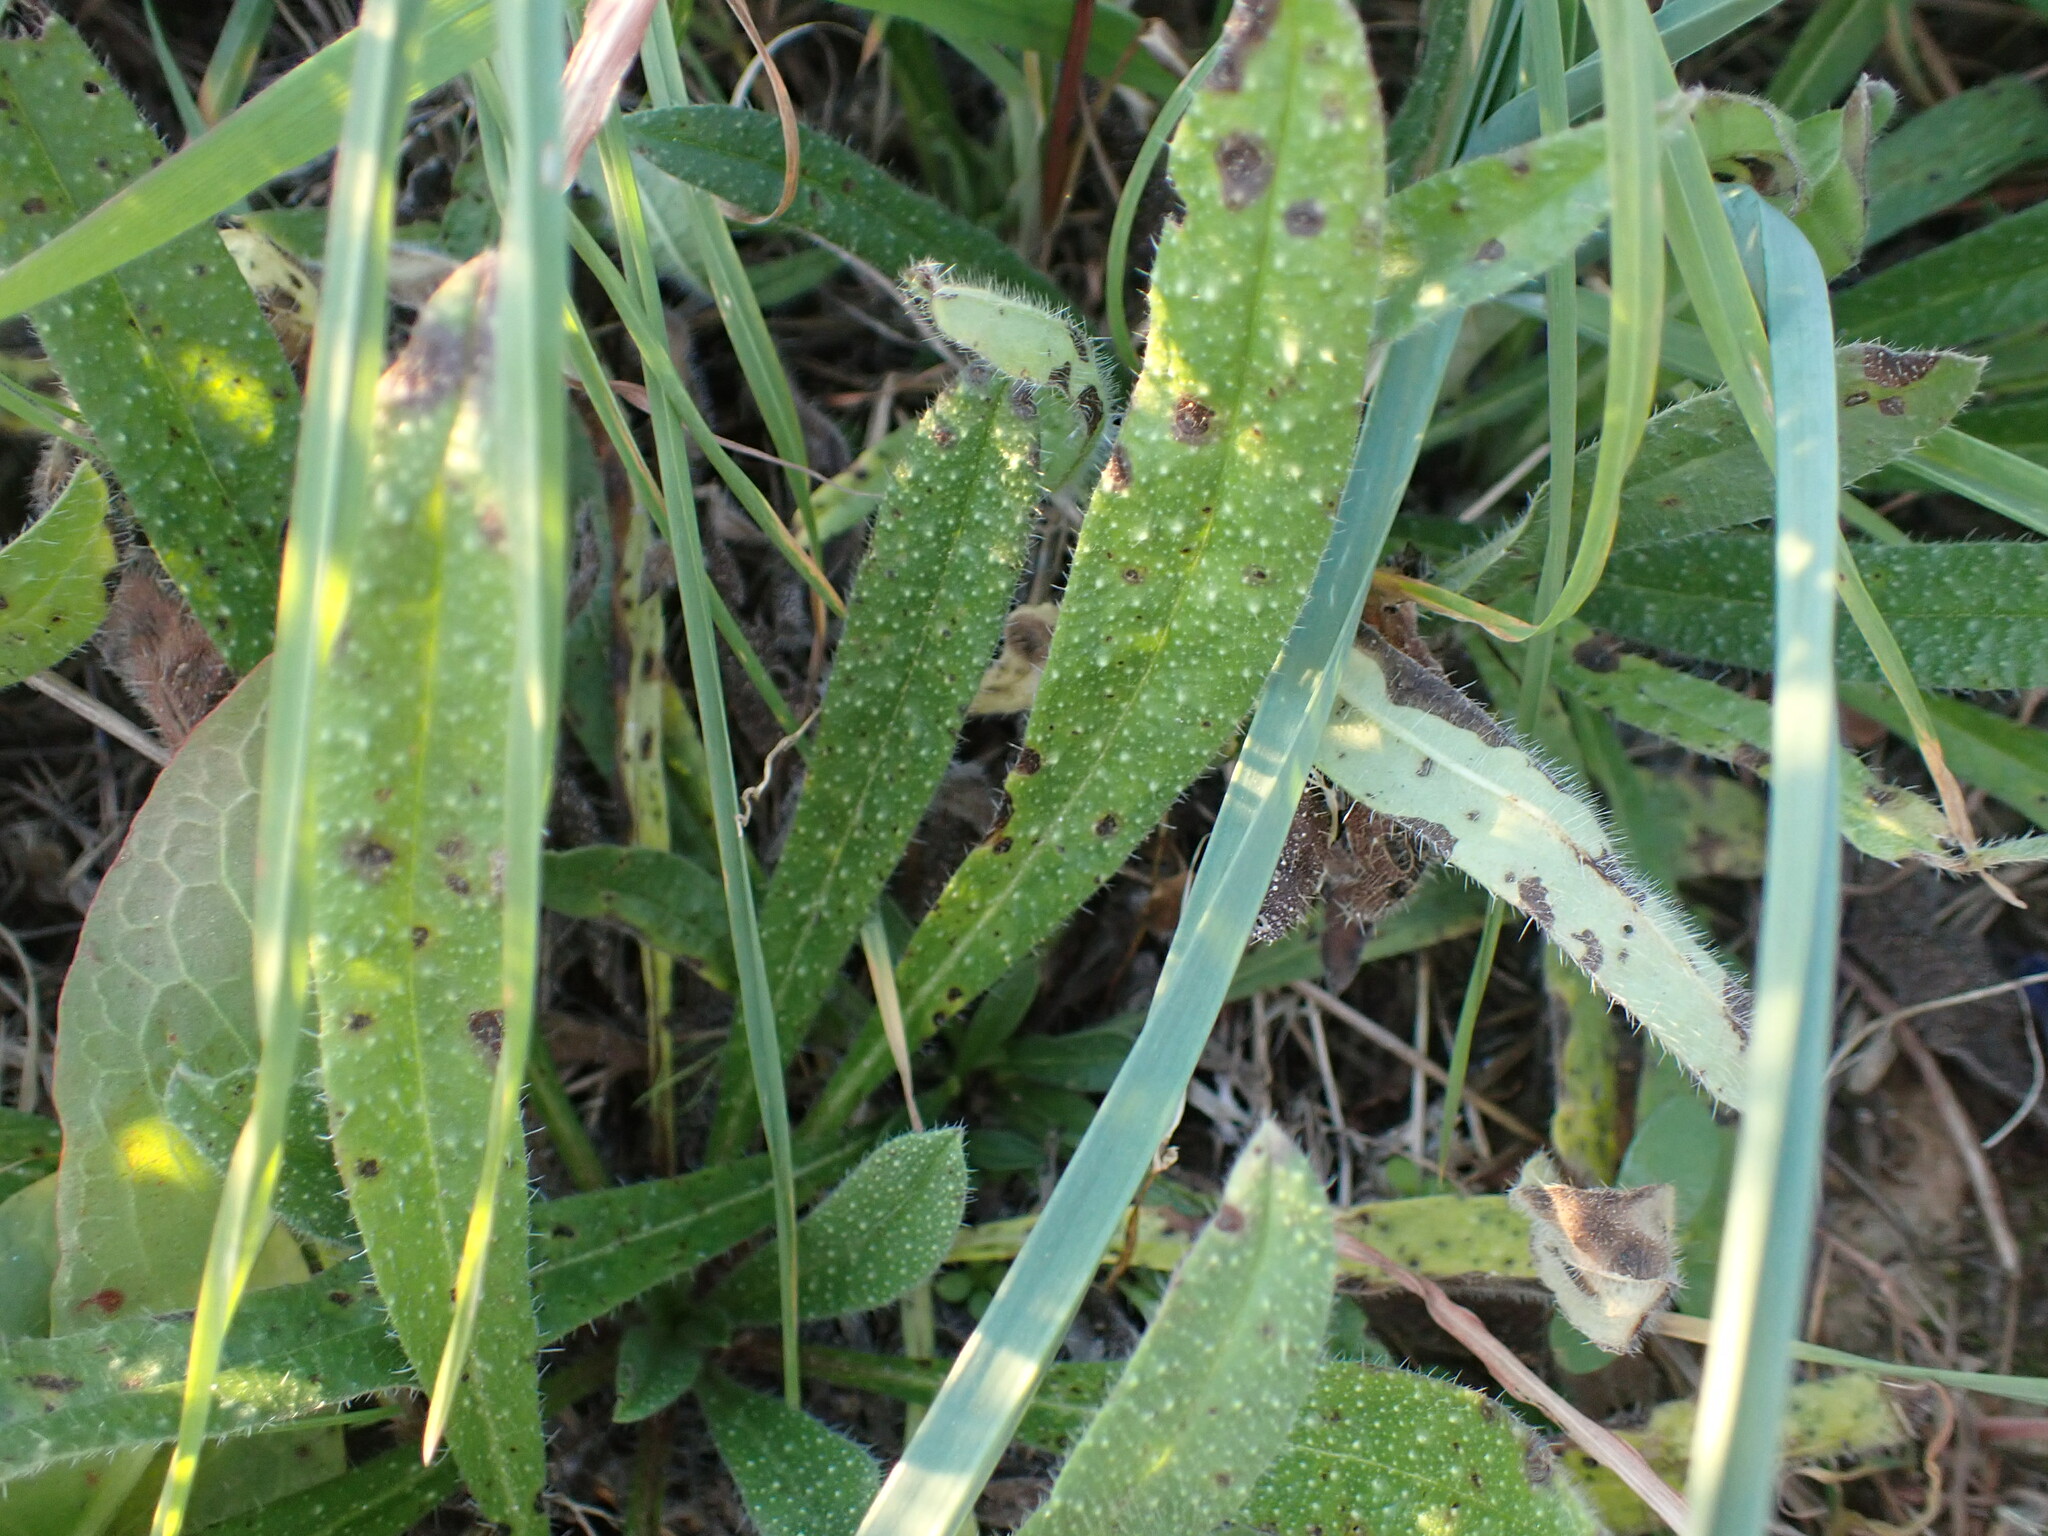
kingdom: Plantae
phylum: Tracheophyta
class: Magnoliopsida
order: Boraginales
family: Boraginaceae
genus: Echium
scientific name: Echium vulgare
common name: Common viper's bugloss
